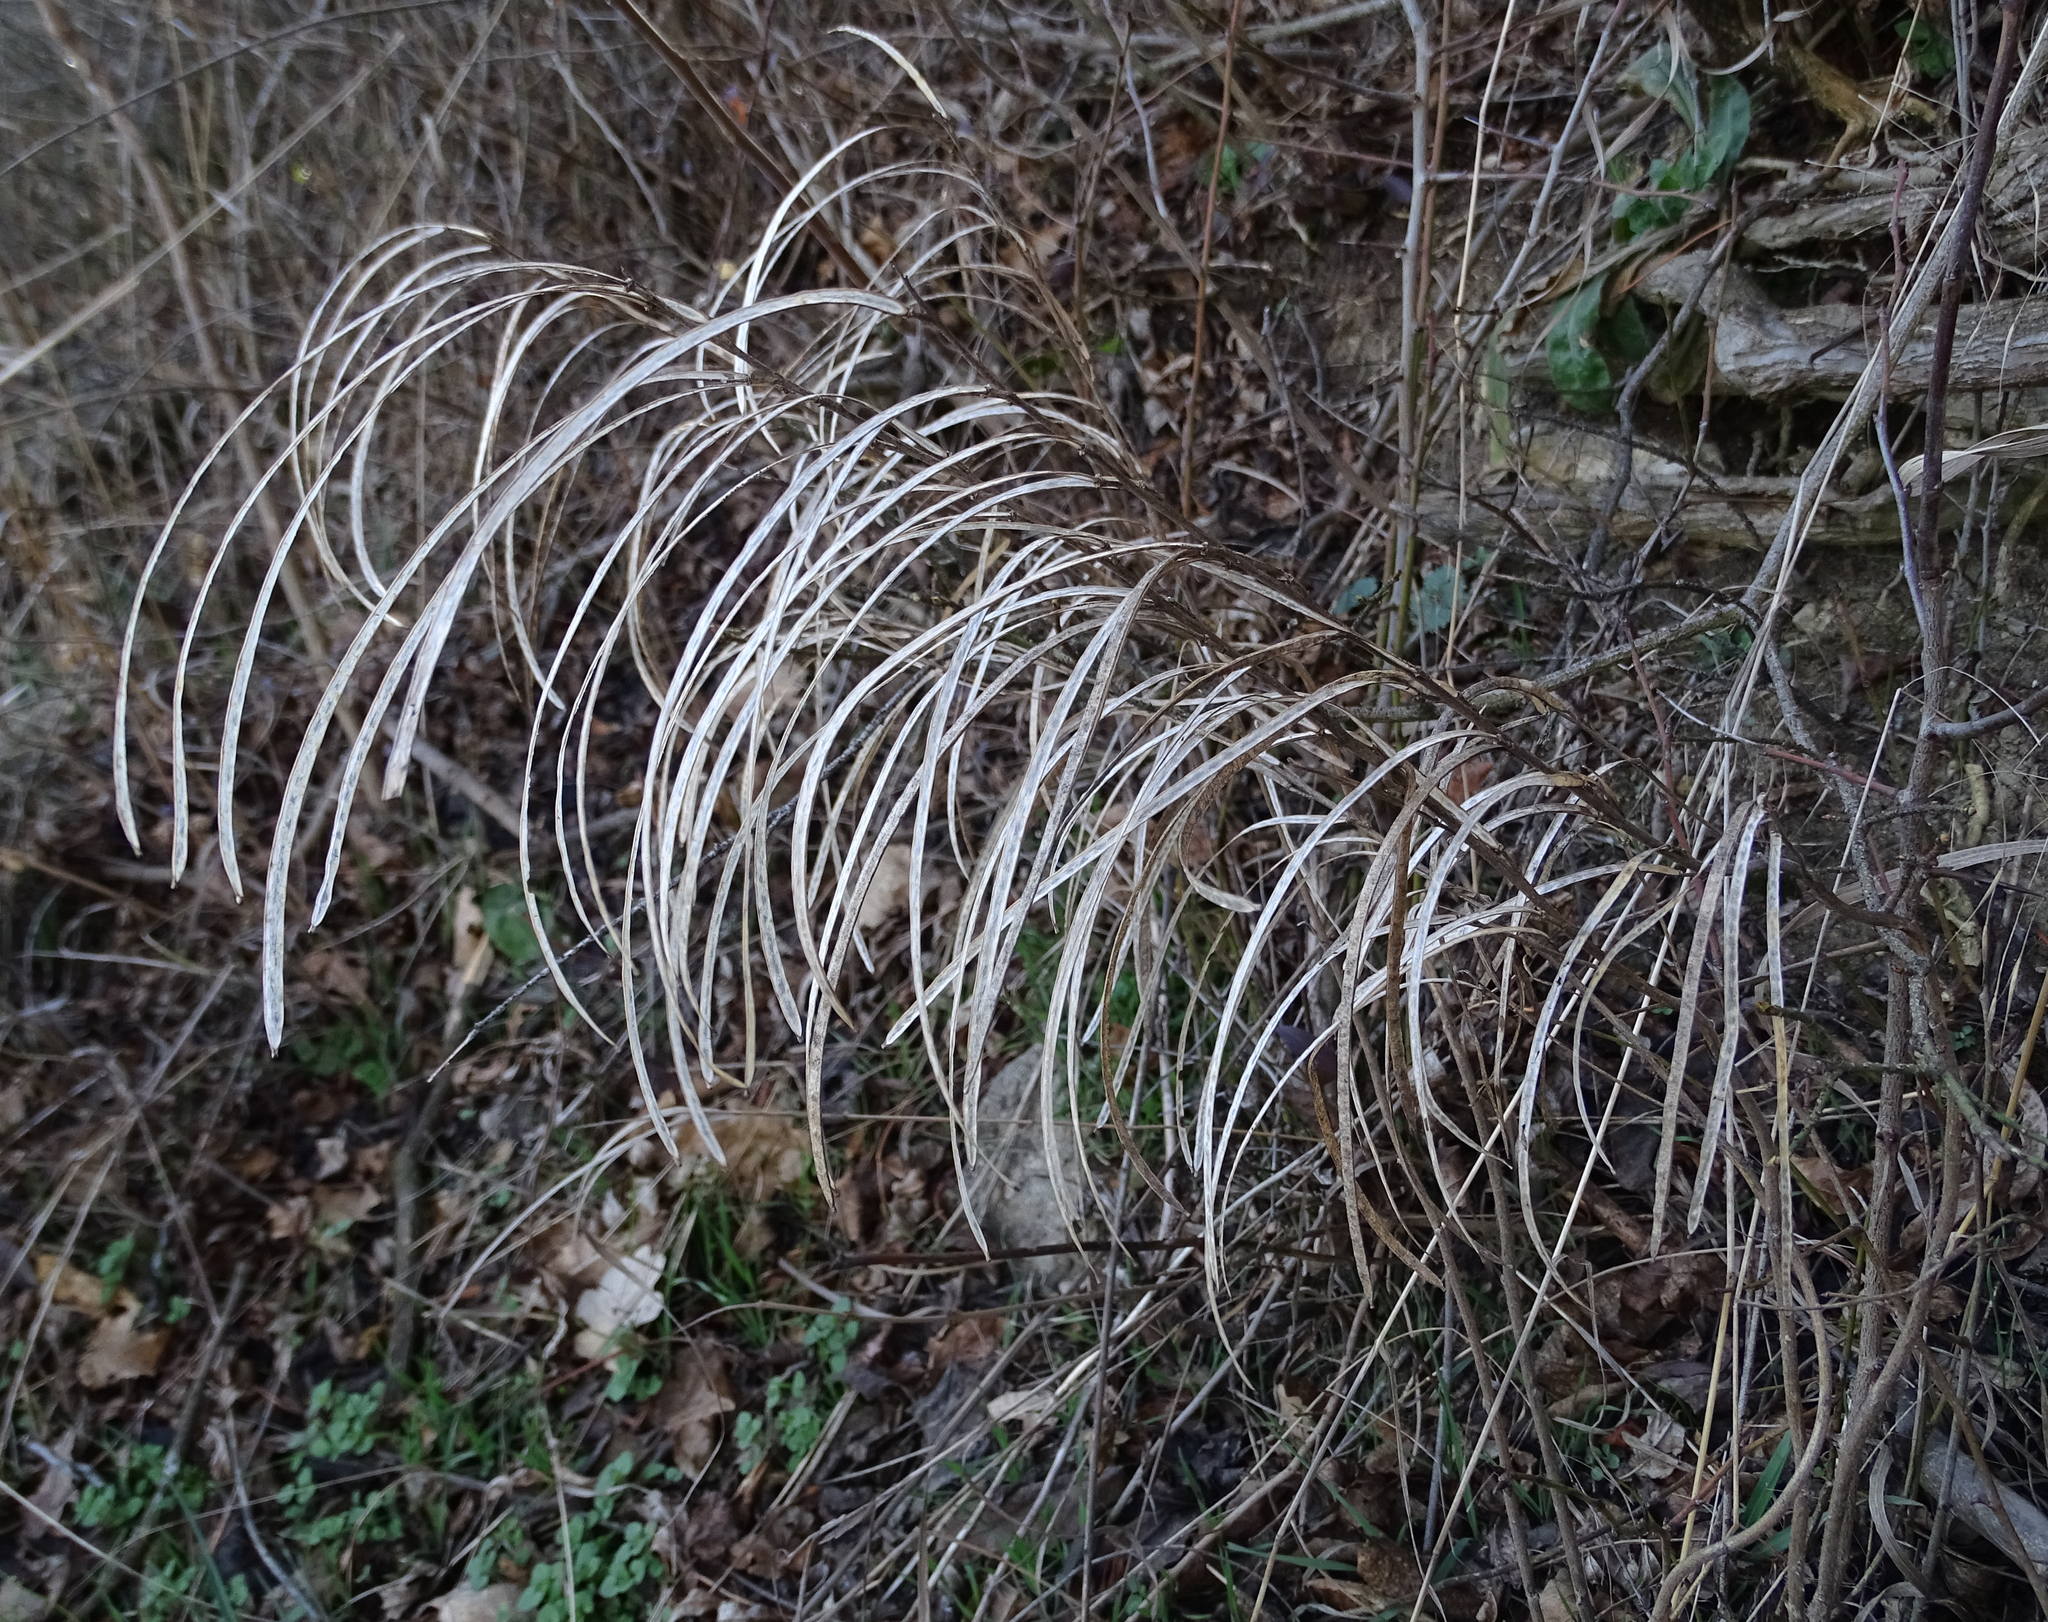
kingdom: Plantae
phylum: Tracheophyta
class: Magnoliopsida
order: Brassicales
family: Brassicaceae
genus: Pseudoturritis
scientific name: Pseudoturritis turrita
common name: Tower cress
